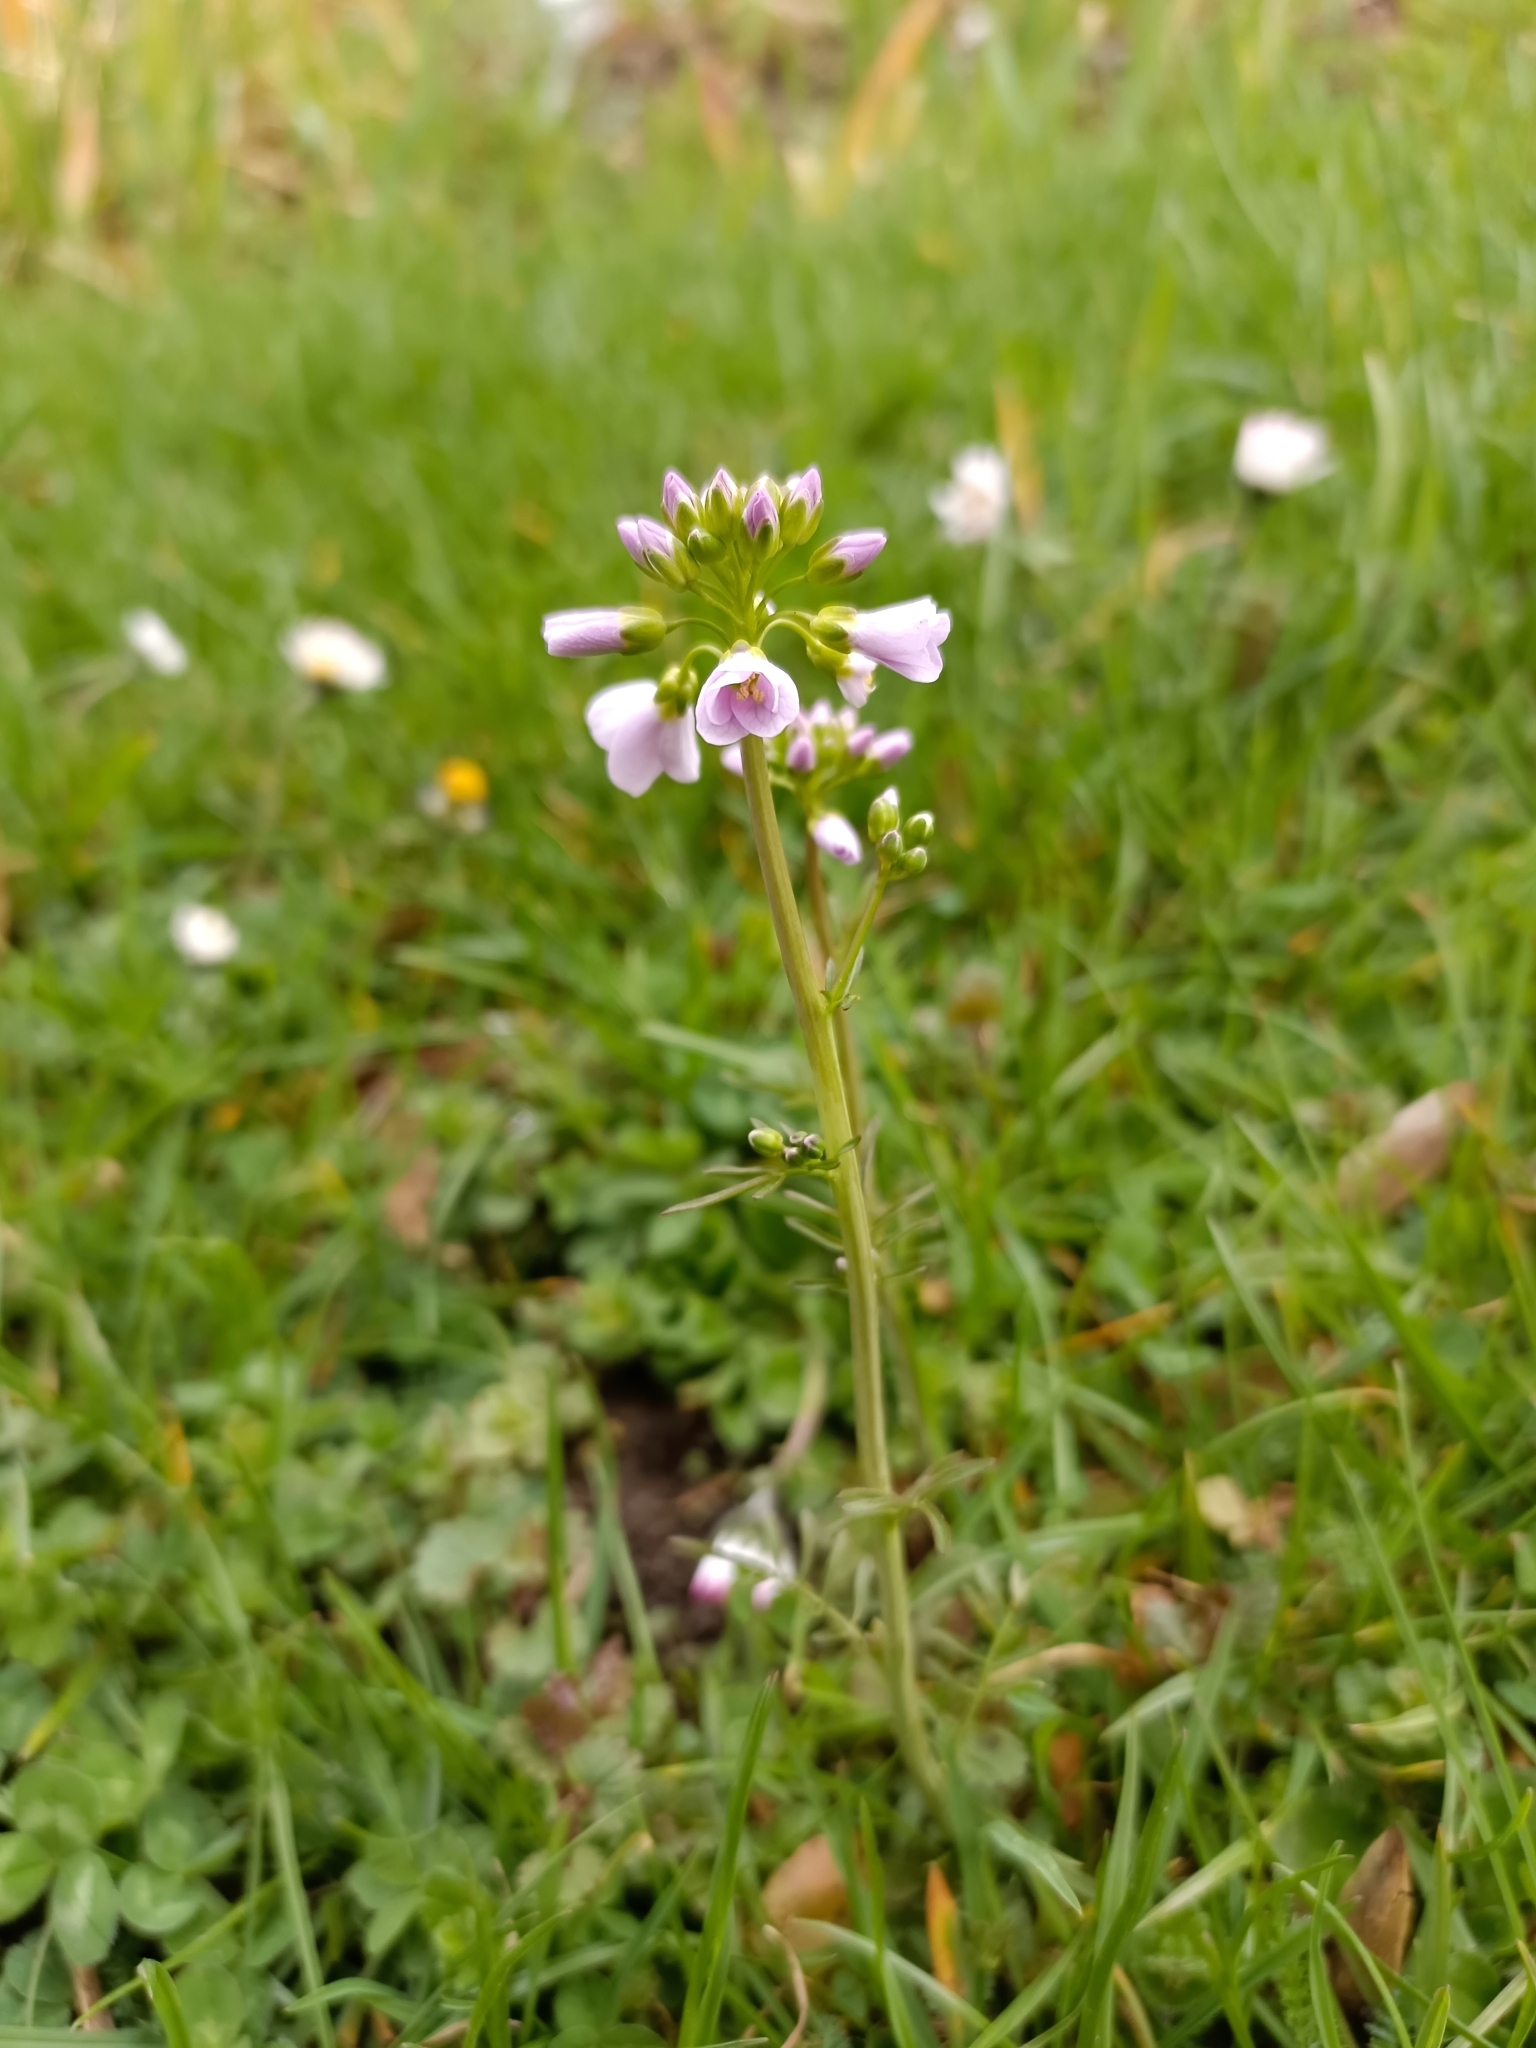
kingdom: Plantae
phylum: Tracheophyta
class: Magnoliopsida
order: Brassicales
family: Brassicaceae
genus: Cardamine
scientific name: Cardamine pratensis
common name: Cuckoo flower
